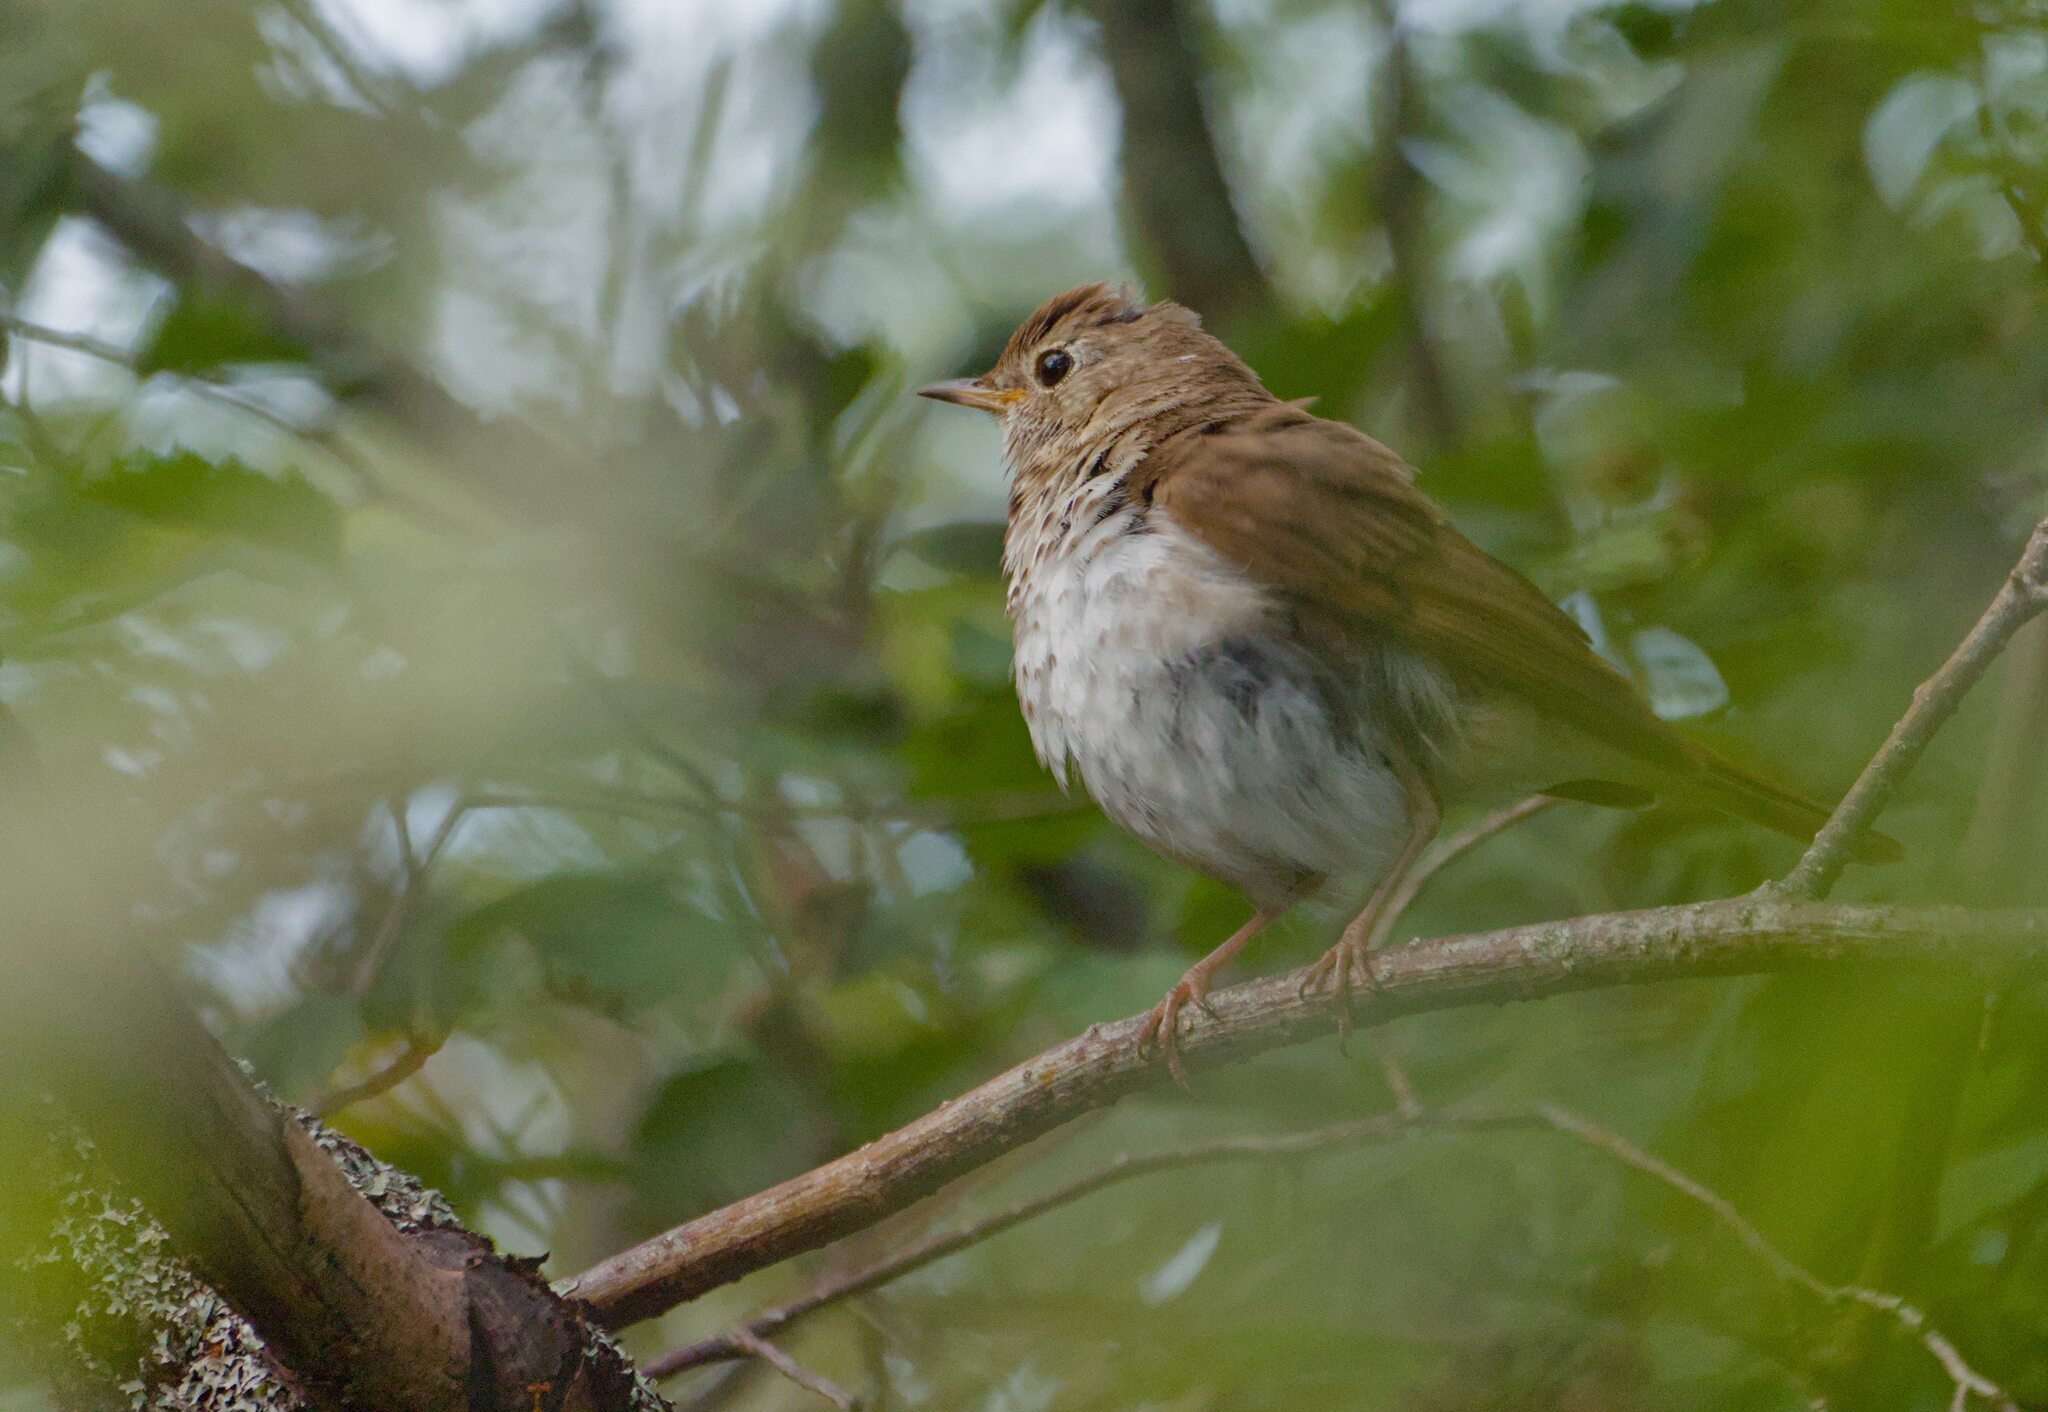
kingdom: Animalia
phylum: Chordata
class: Aves
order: Passeriformes
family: Turdidae
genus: Catharus
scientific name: Catharus fuscescens
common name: Veery
